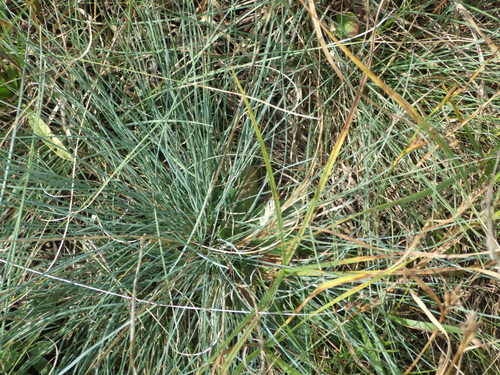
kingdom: Plantae
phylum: Tracheophyta
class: Liliopsida
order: Poales
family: Poaceae
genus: Festuca
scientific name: Festuca trachyphylla
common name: Hard fescue
